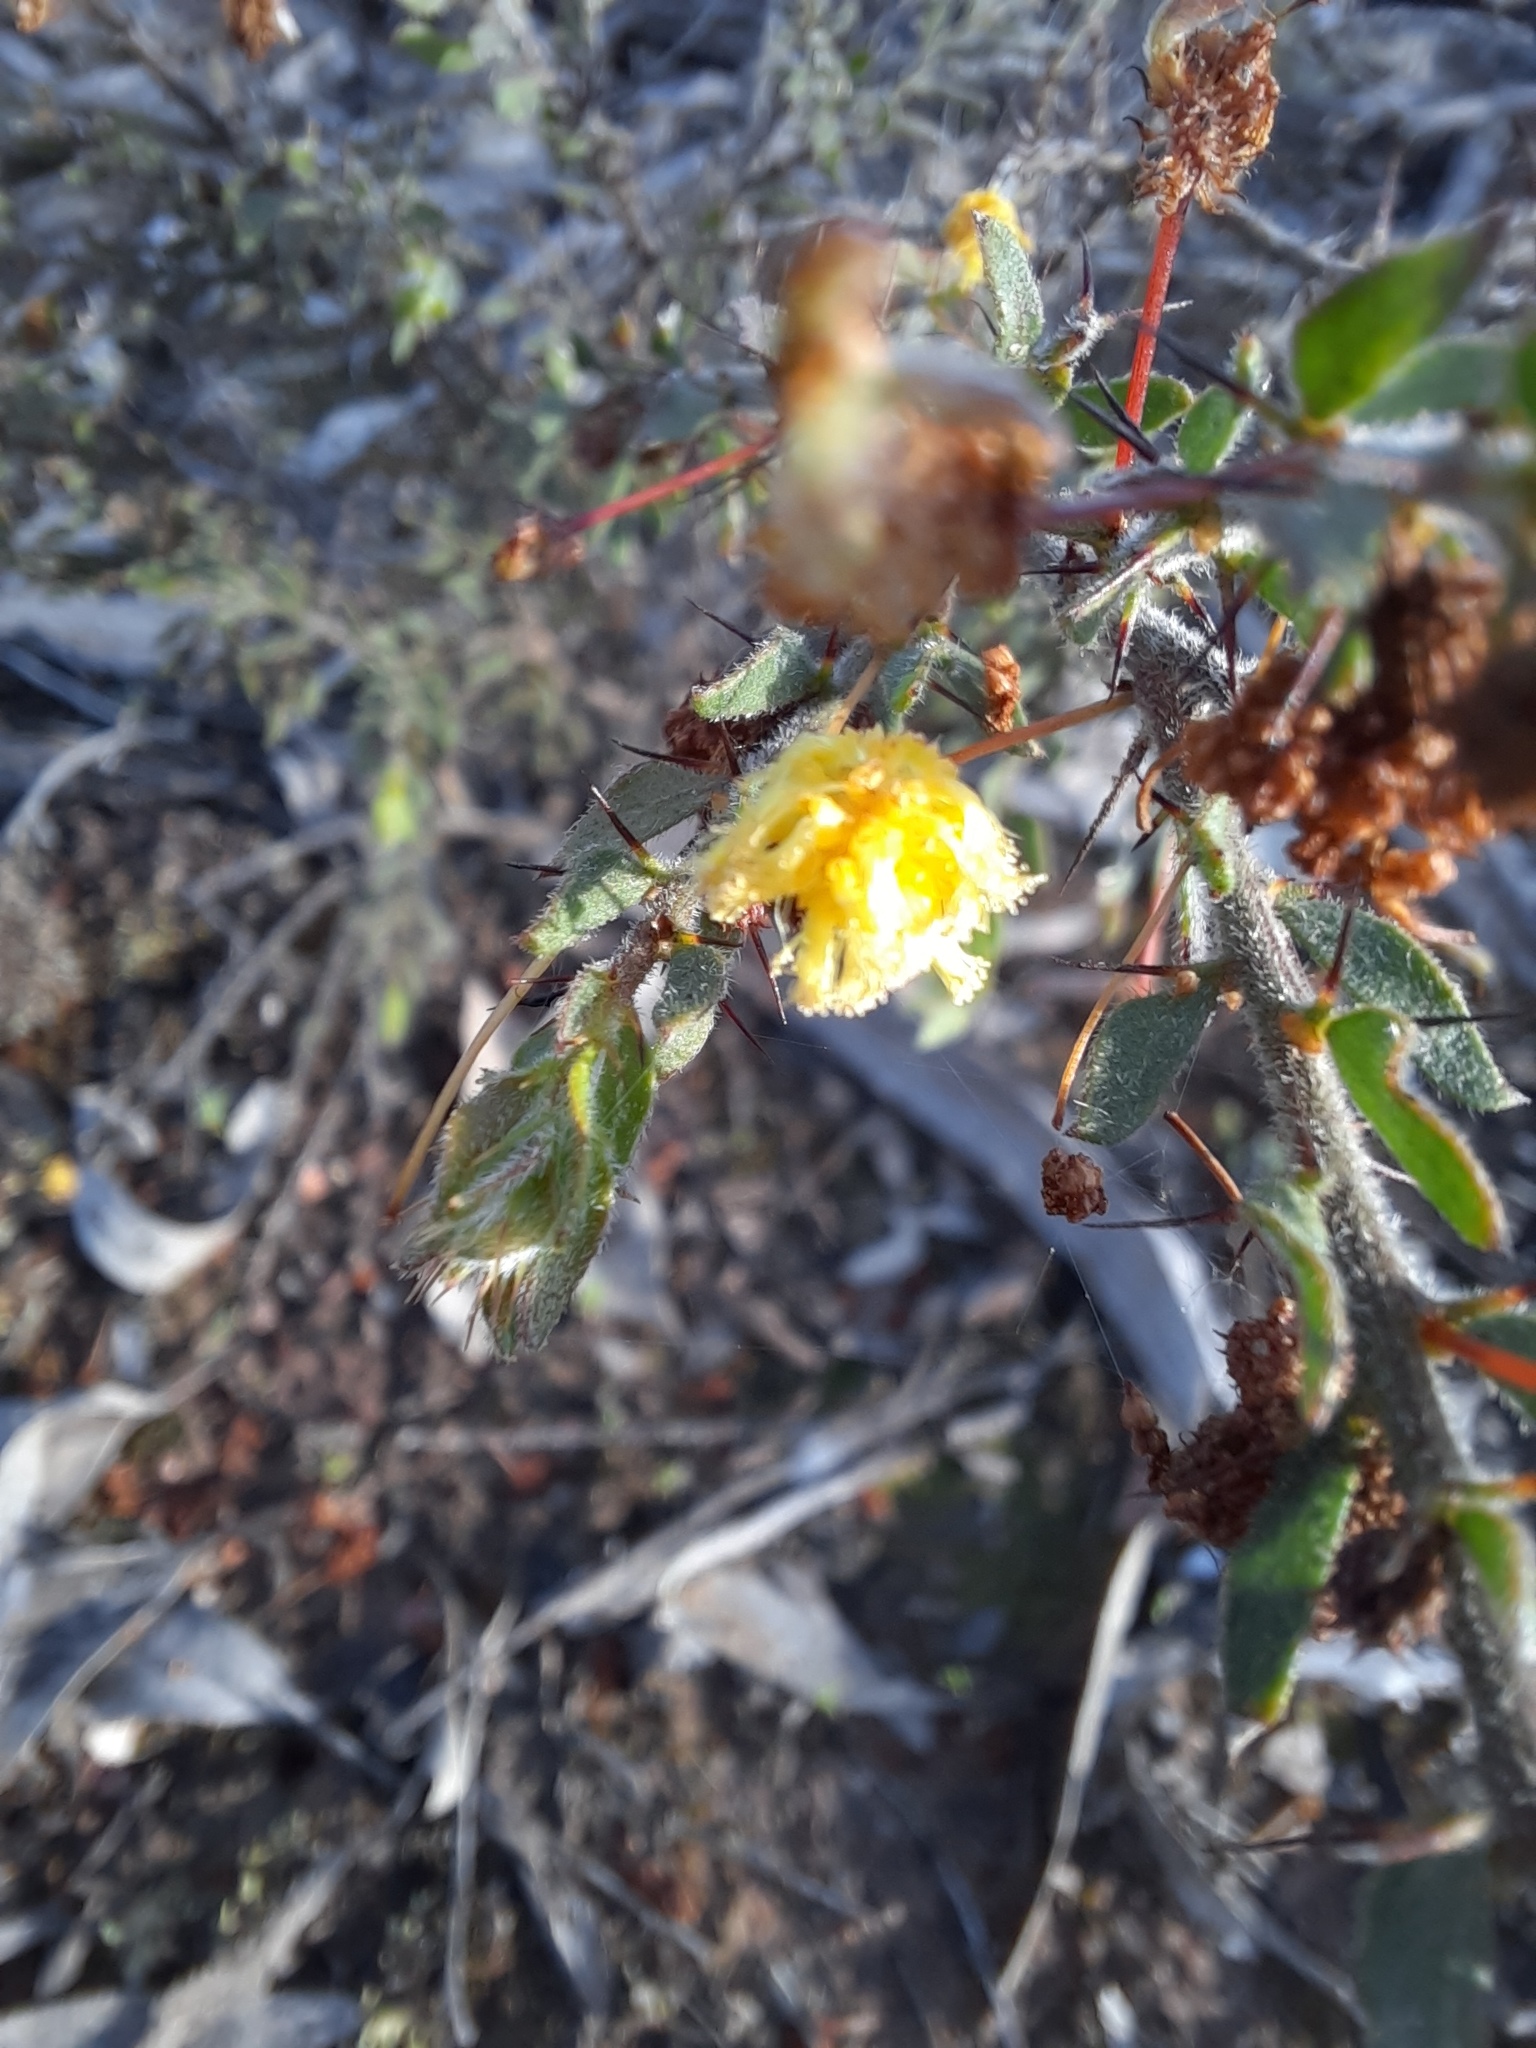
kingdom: Plantae
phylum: Tracheophyta
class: Magnoliopsida
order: Fabales
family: Fabaceae
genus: Acacia
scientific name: Acacia paradoxa
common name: Paradox acacia
